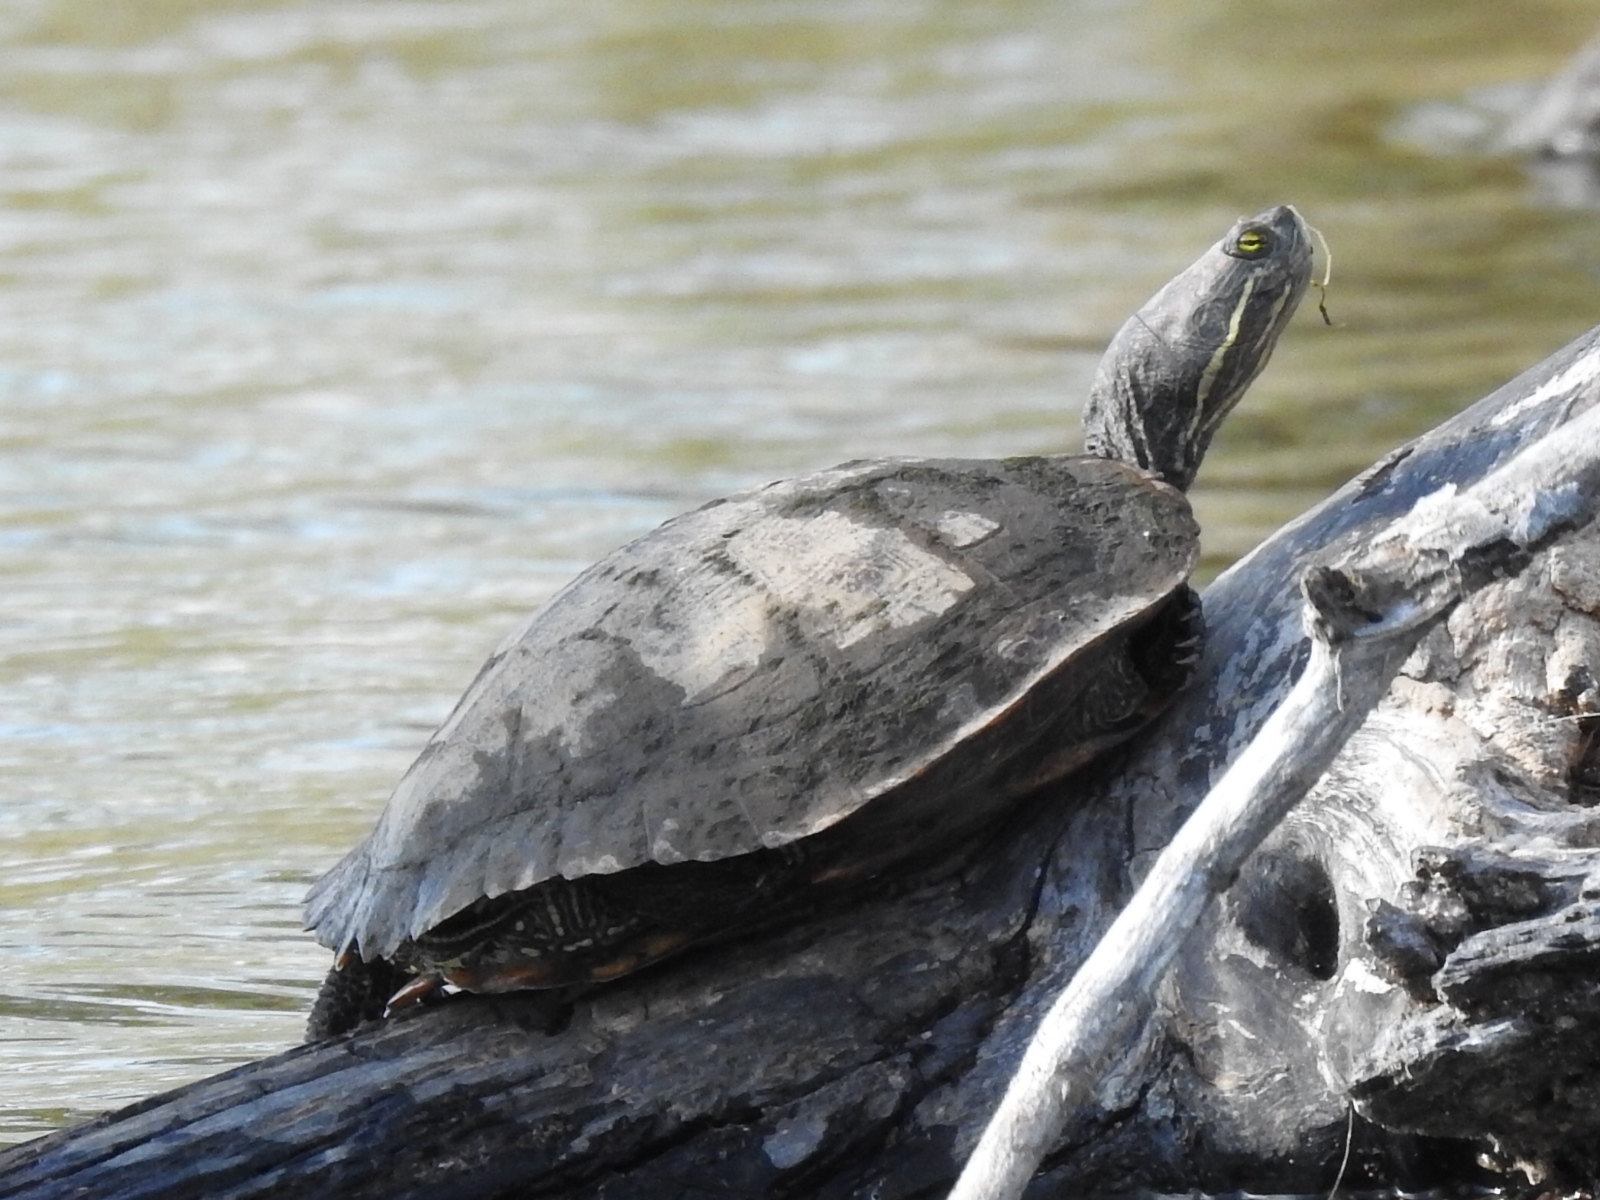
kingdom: Animalia
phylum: Chordata
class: Testudines
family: Emydidae
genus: Trachemys
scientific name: Trachemys scripta
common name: Slider
